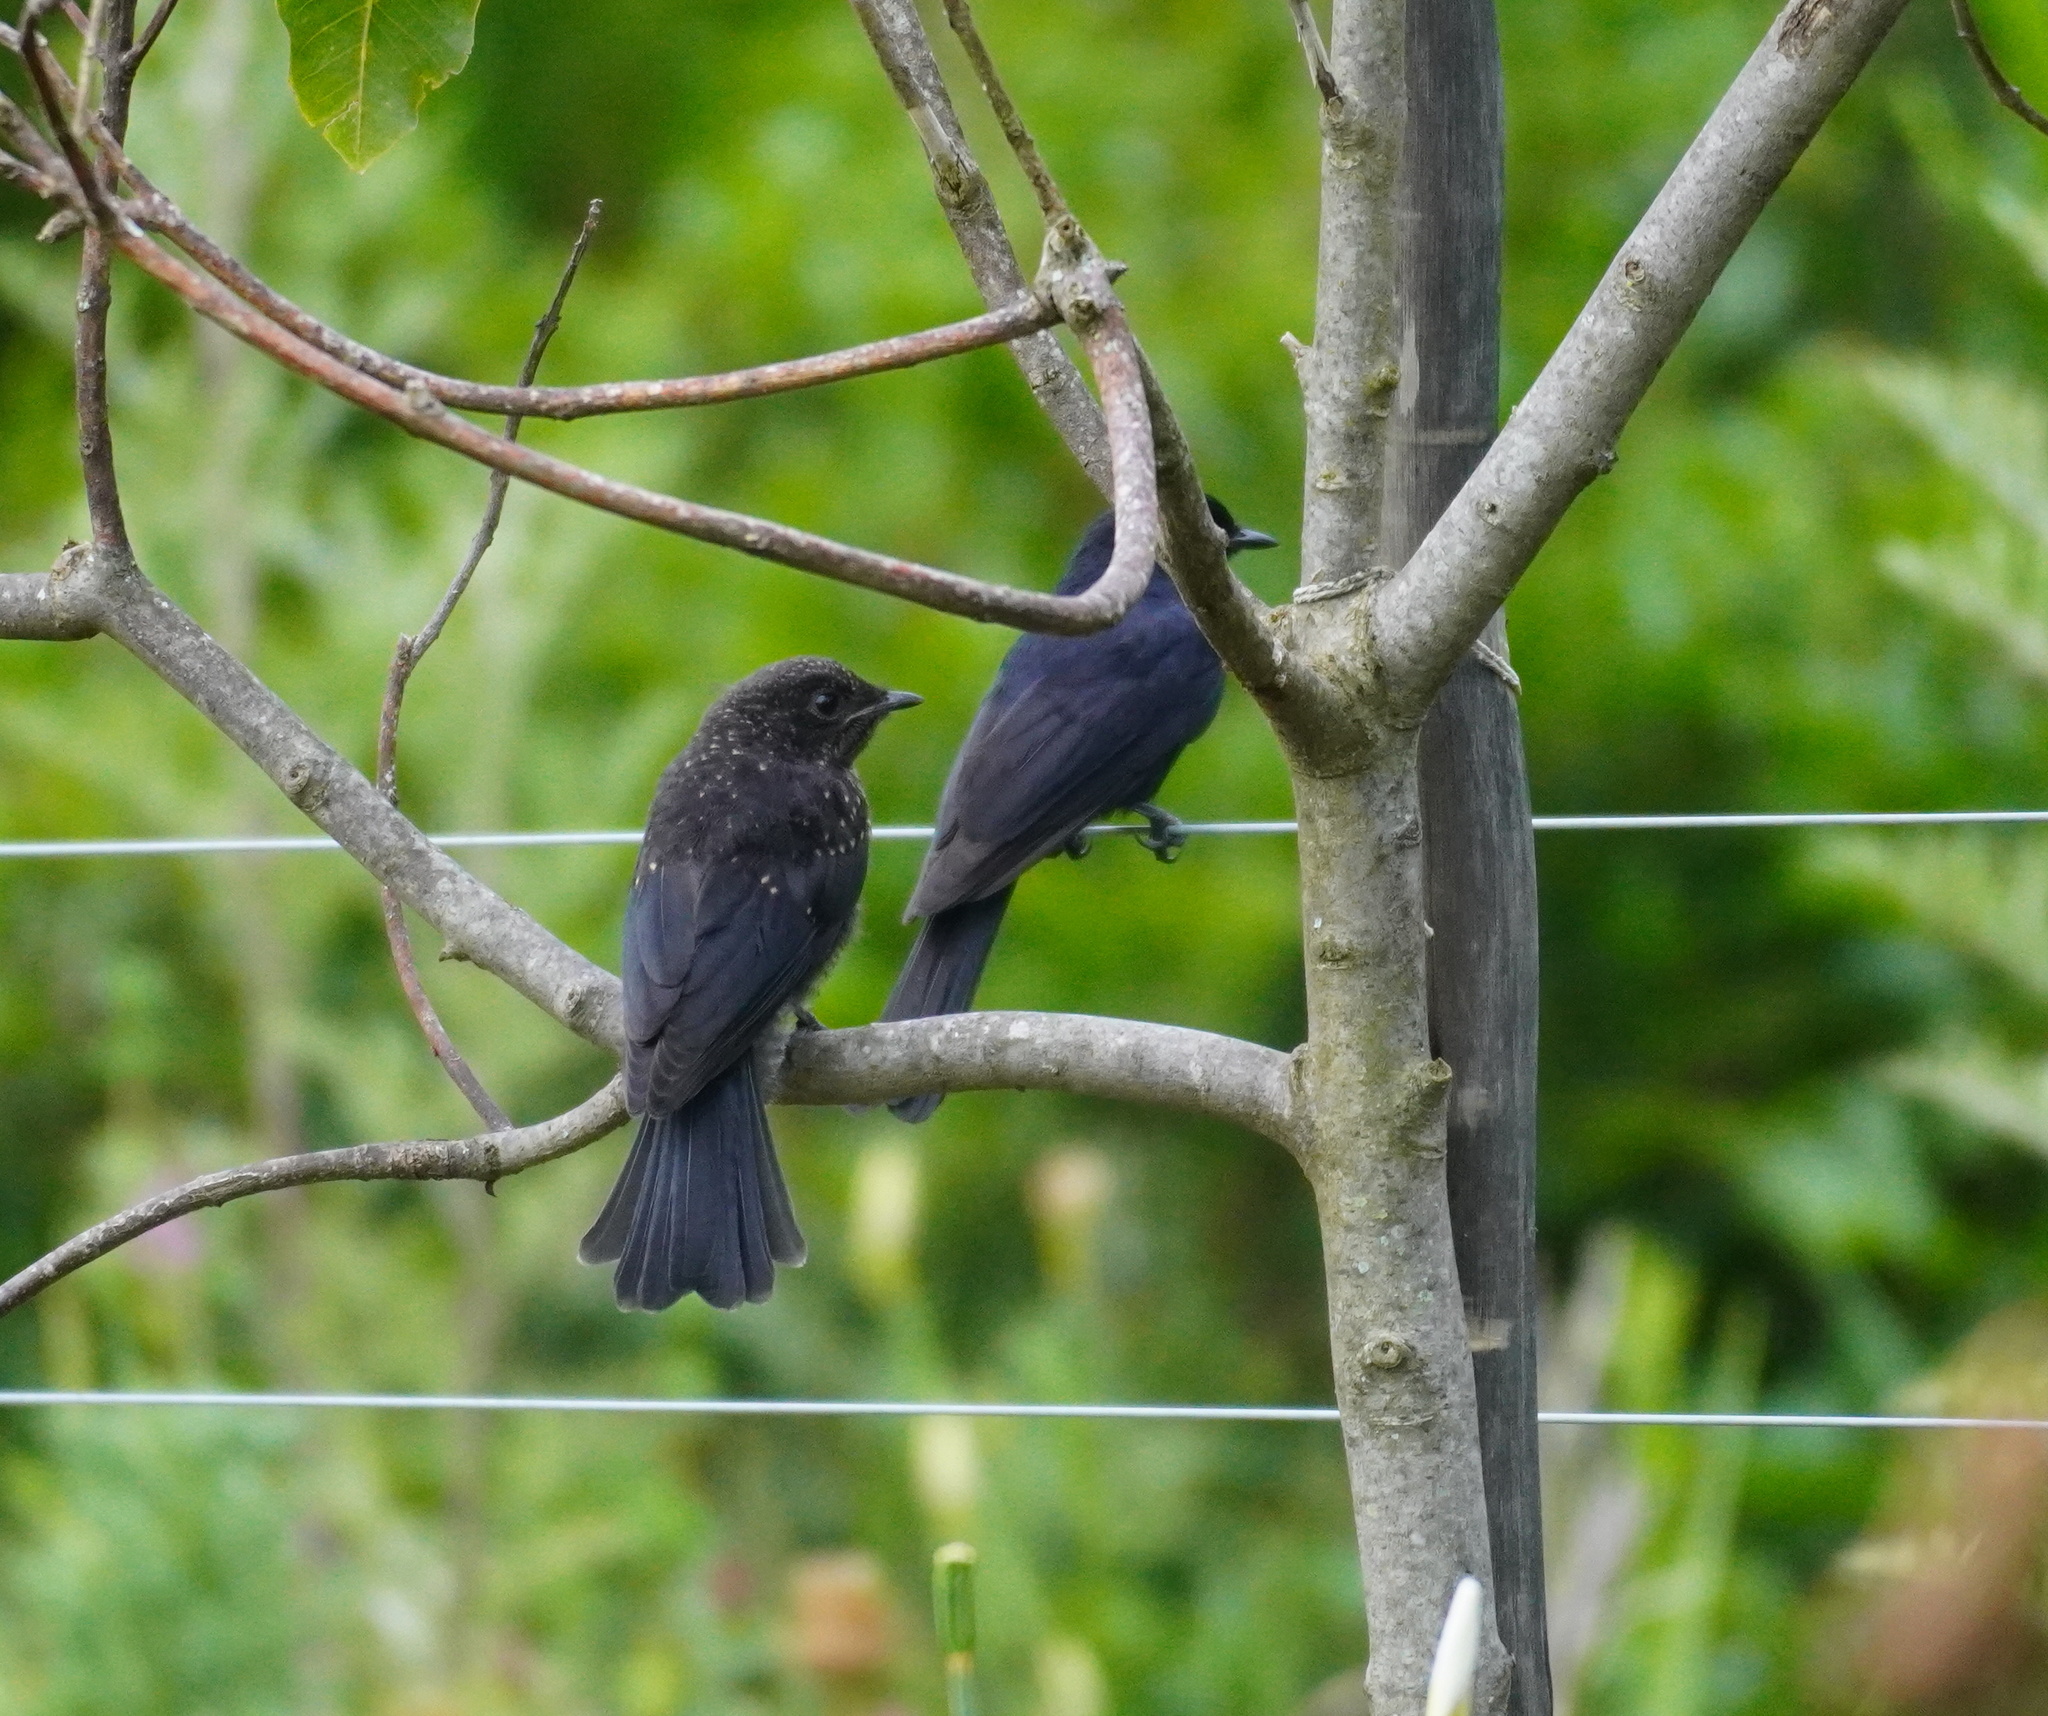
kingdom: Animalia
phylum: Chordata
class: Aves
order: Passeriformes
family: Dicruridae
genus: Dicrurus
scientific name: Dicrurus ludwigii
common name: Square-tailed drongo
